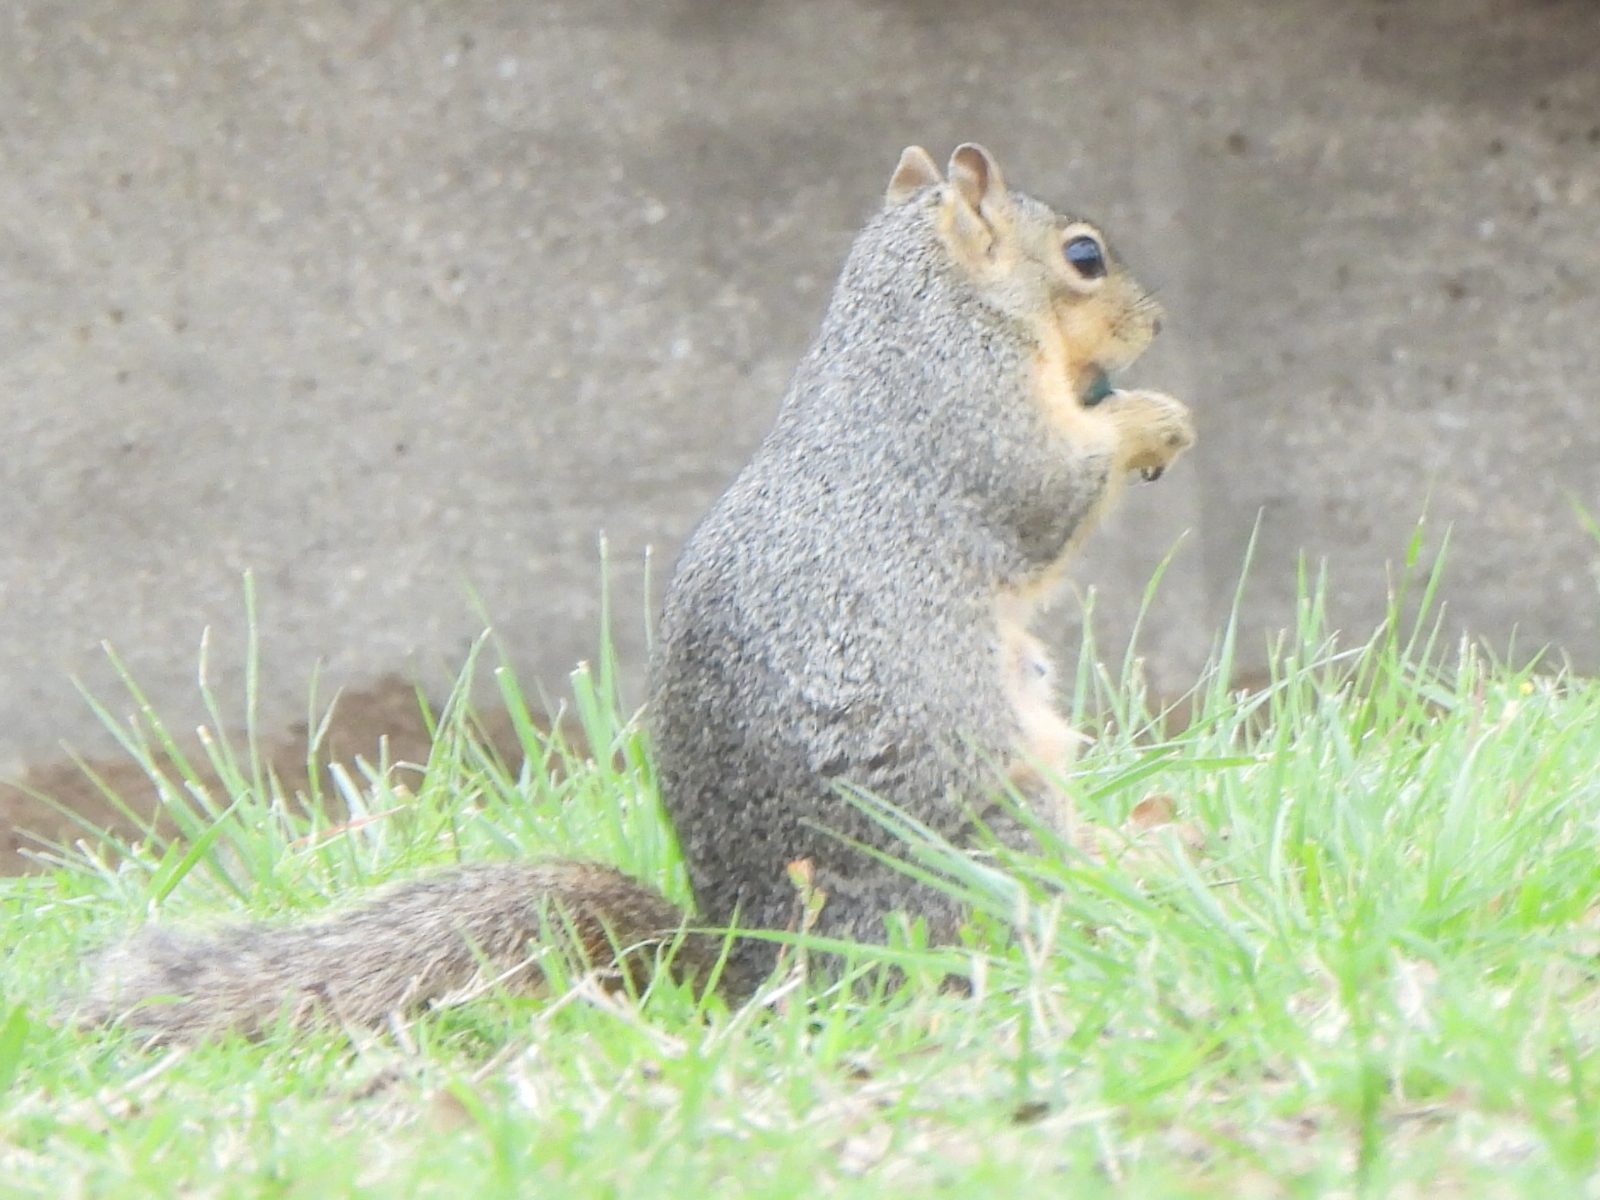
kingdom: Animalia
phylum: Chordata
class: Mammalia
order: Rodentia
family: Sciuridae
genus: Sciurus
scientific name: Sciurus niger
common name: Fox squirrel
